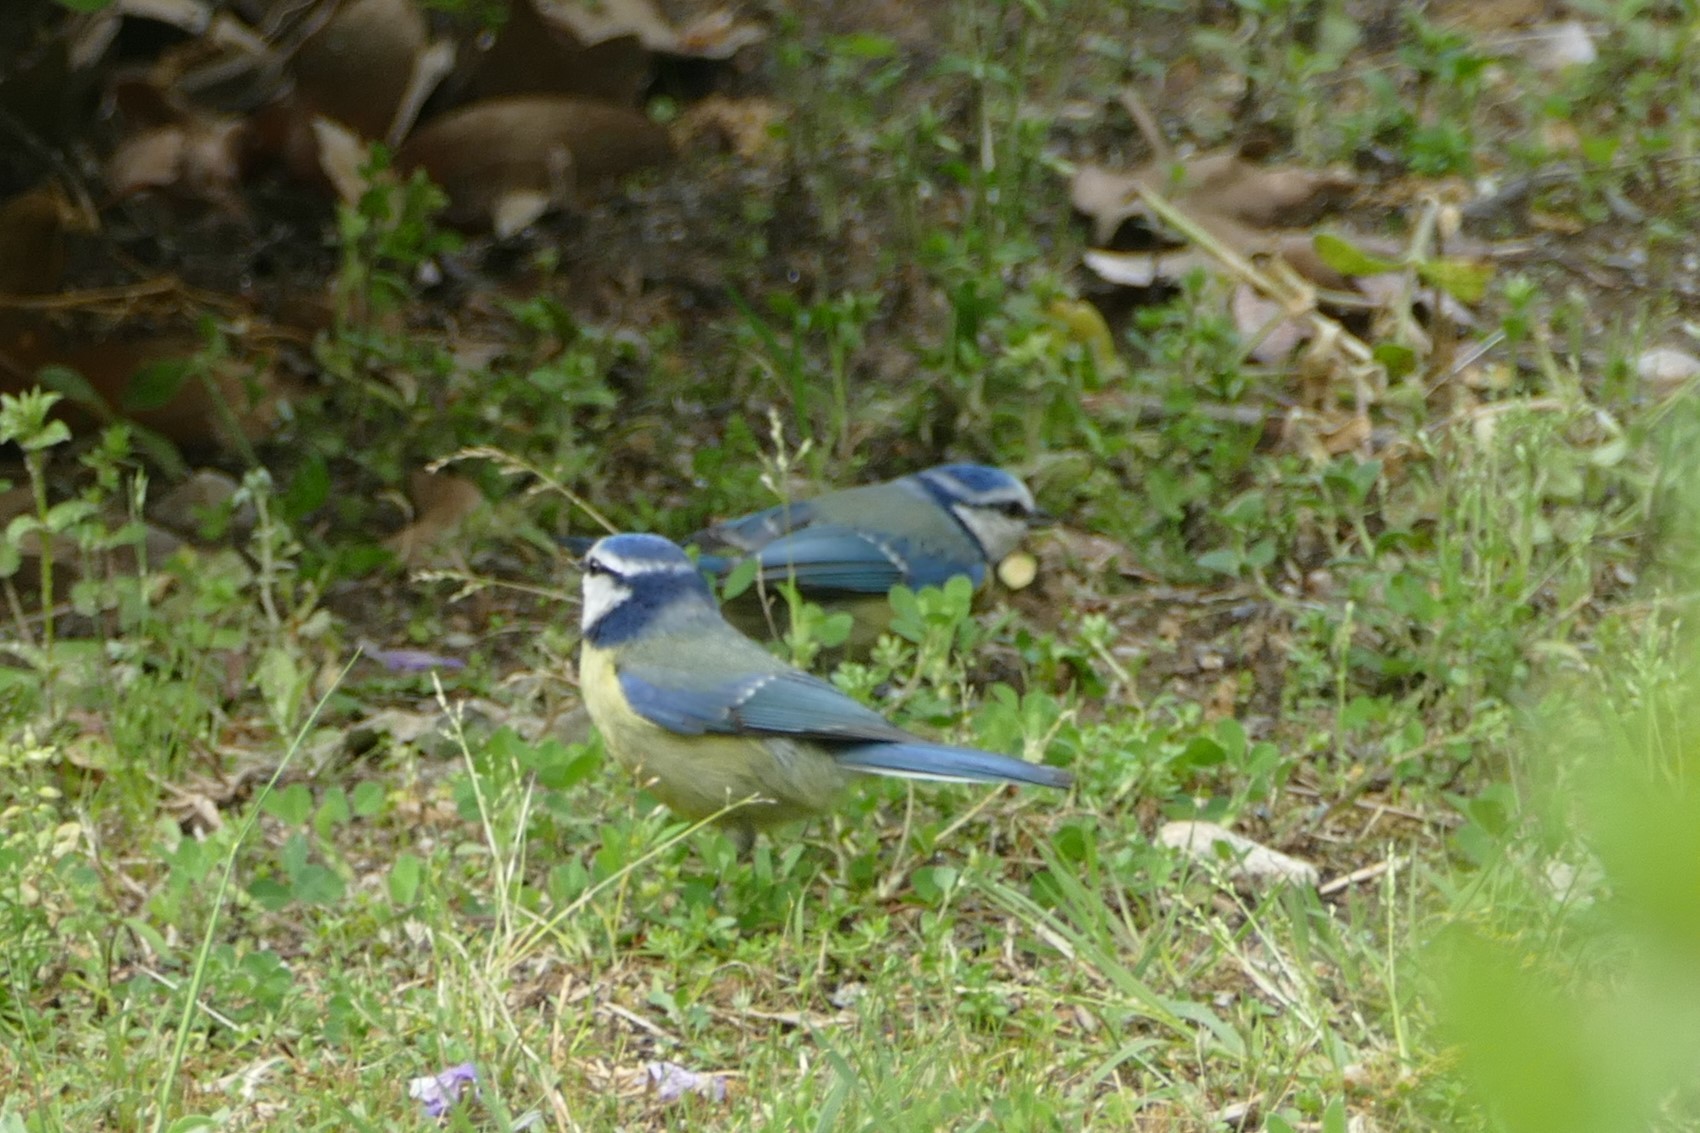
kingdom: Animalia
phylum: Chordata
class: Aves
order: Passeriformes
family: Paridae
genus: Cyanistes
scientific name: Cyanistes caeruleus
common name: Eurasian blue tit
